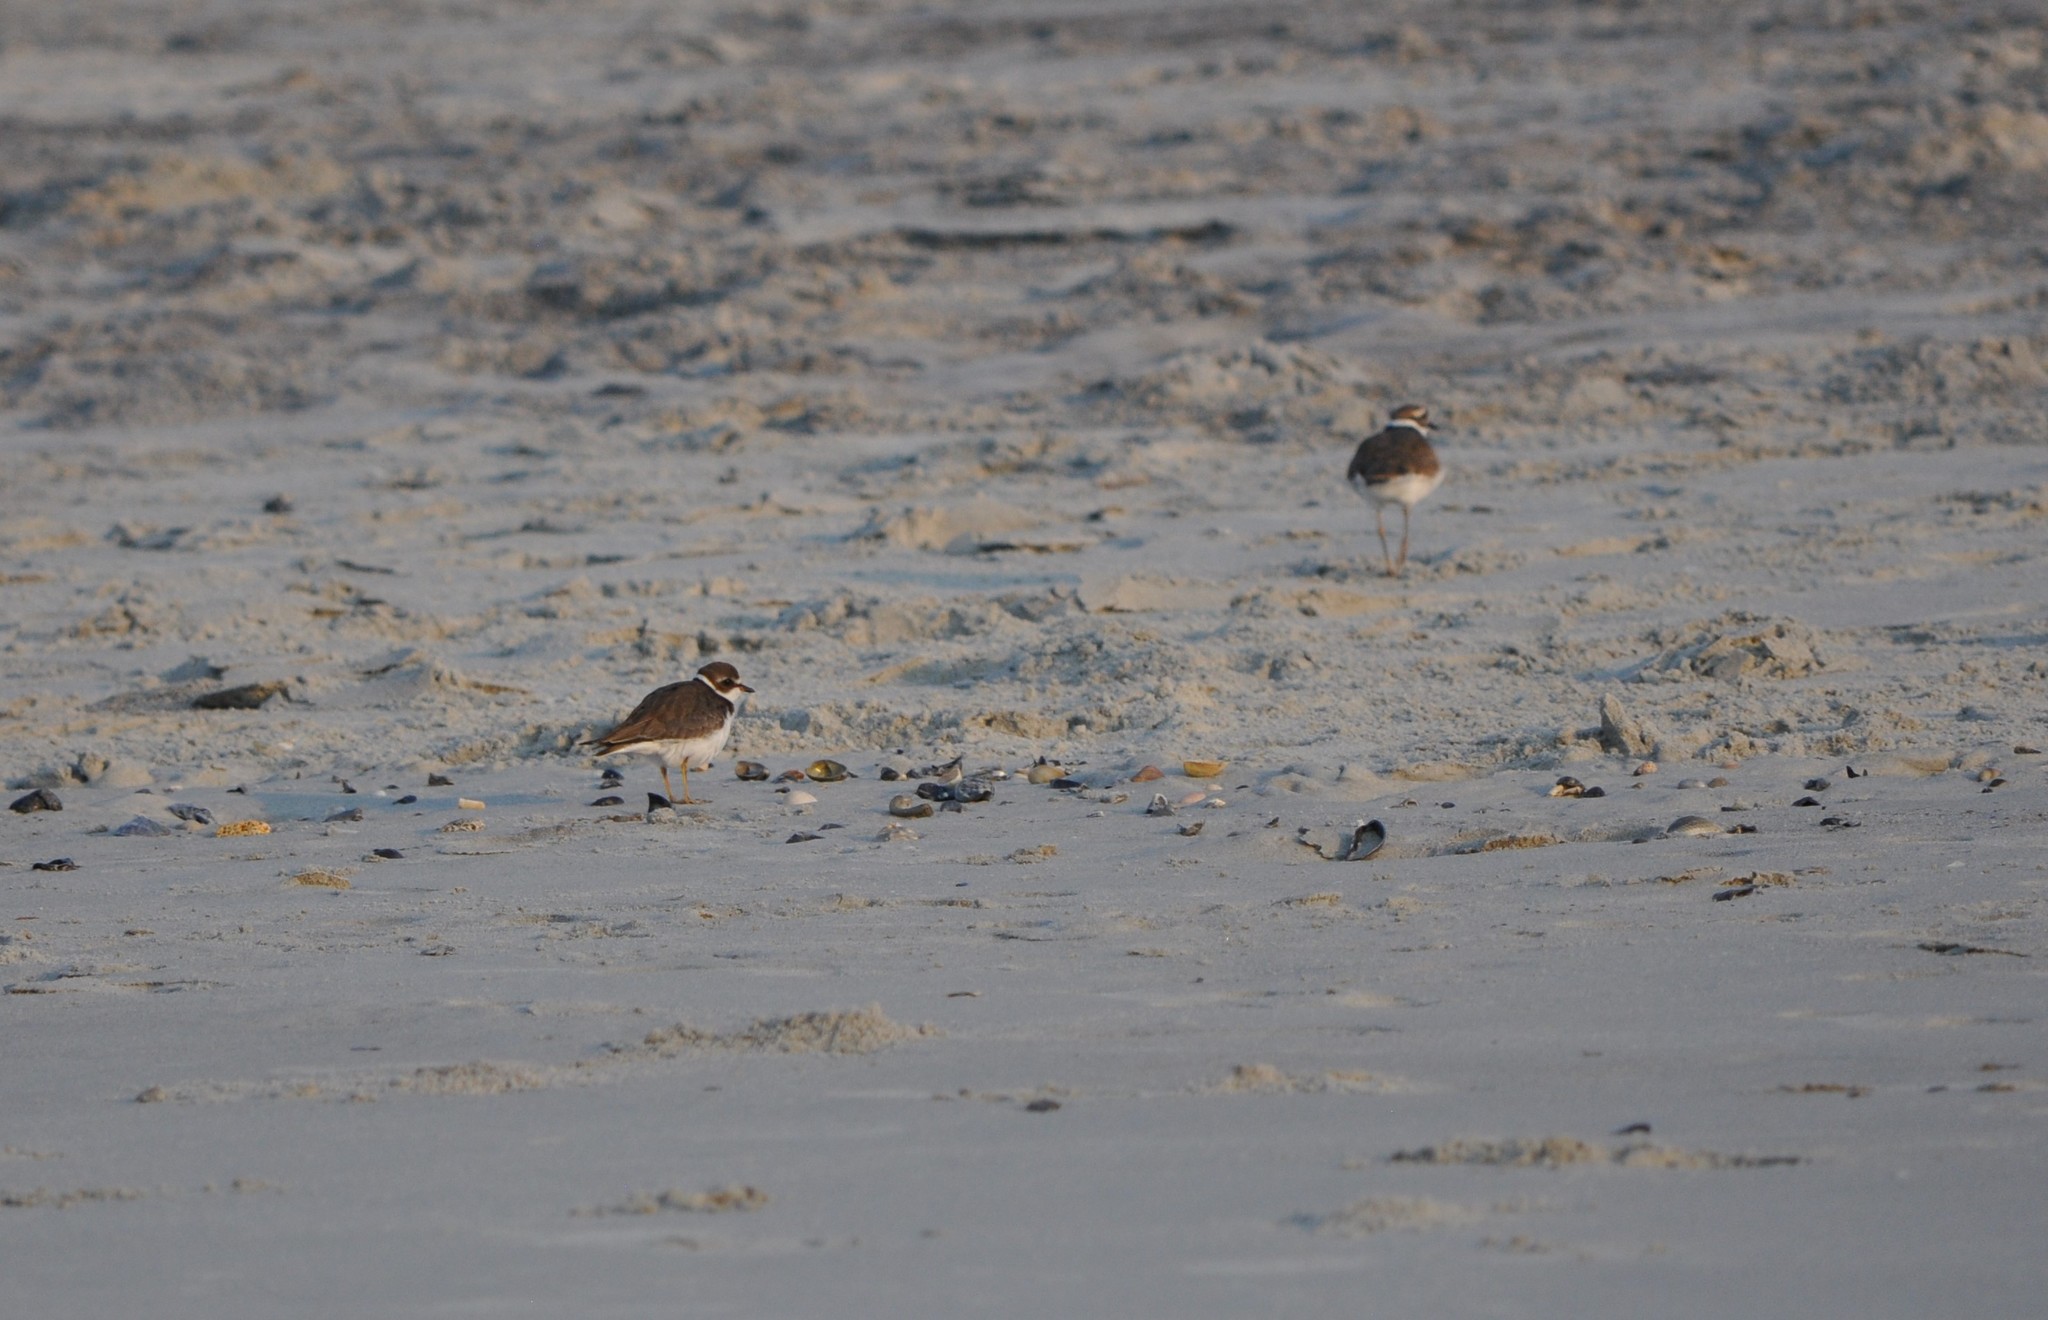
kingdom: Animalia
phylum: Chordata
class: Aves
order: Charadriiformes
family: Charadriidae
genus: Charadrius
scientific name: Charadrius semipalmatus
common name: Semipalmated plover
